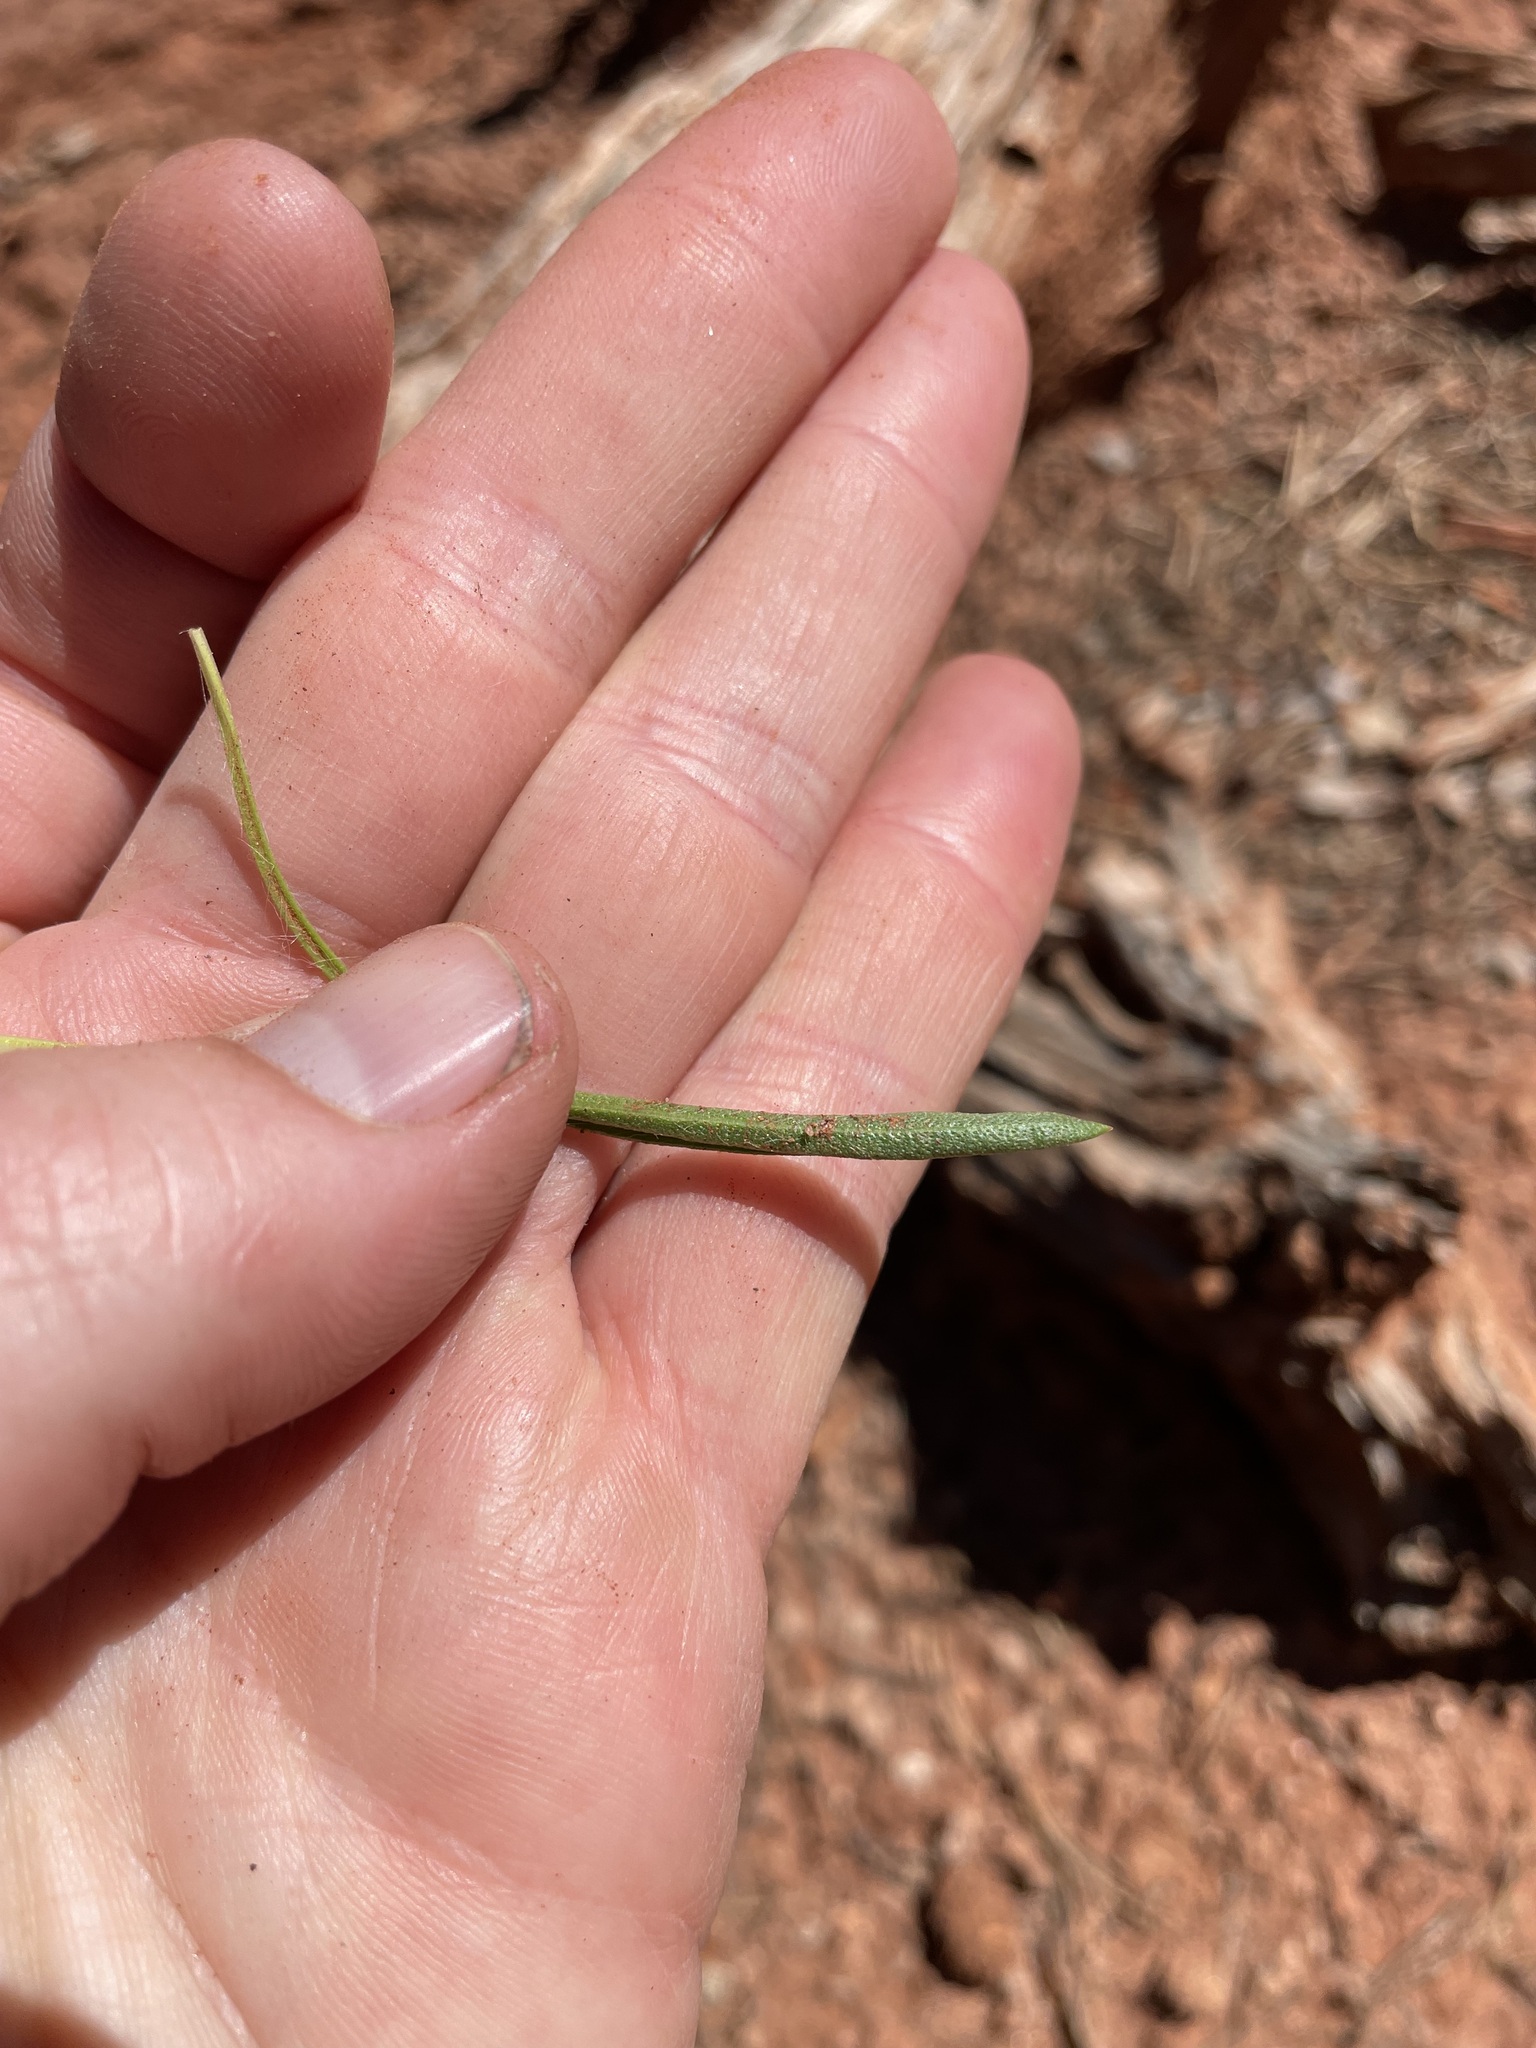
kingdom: Plantae
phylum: Tracheophyta
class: Magnoliopsida
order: Asterales
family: Asteraceae
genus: Tetraneuris
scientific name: Tetraneuris ivesiana
